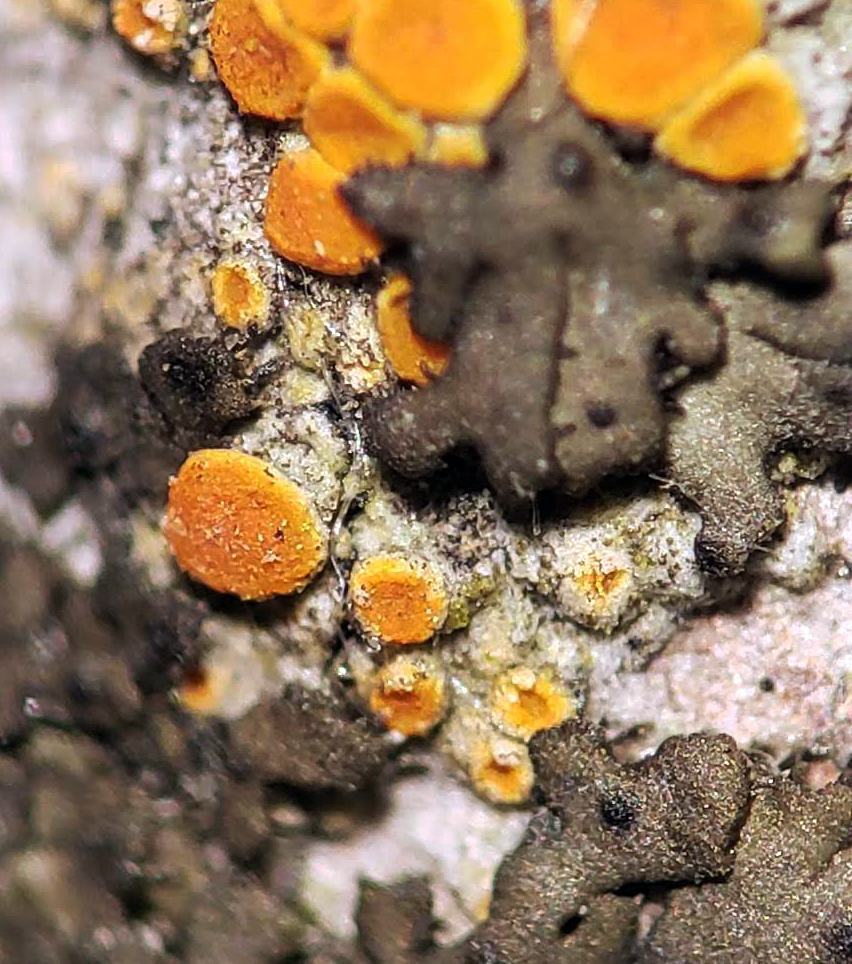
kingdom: Fungi
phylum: Ascomycota
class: Lecanoromycetes
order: Teloschistales
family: Teloschistaceae
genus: Opeltia
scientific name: Opeltia flavorubescens
